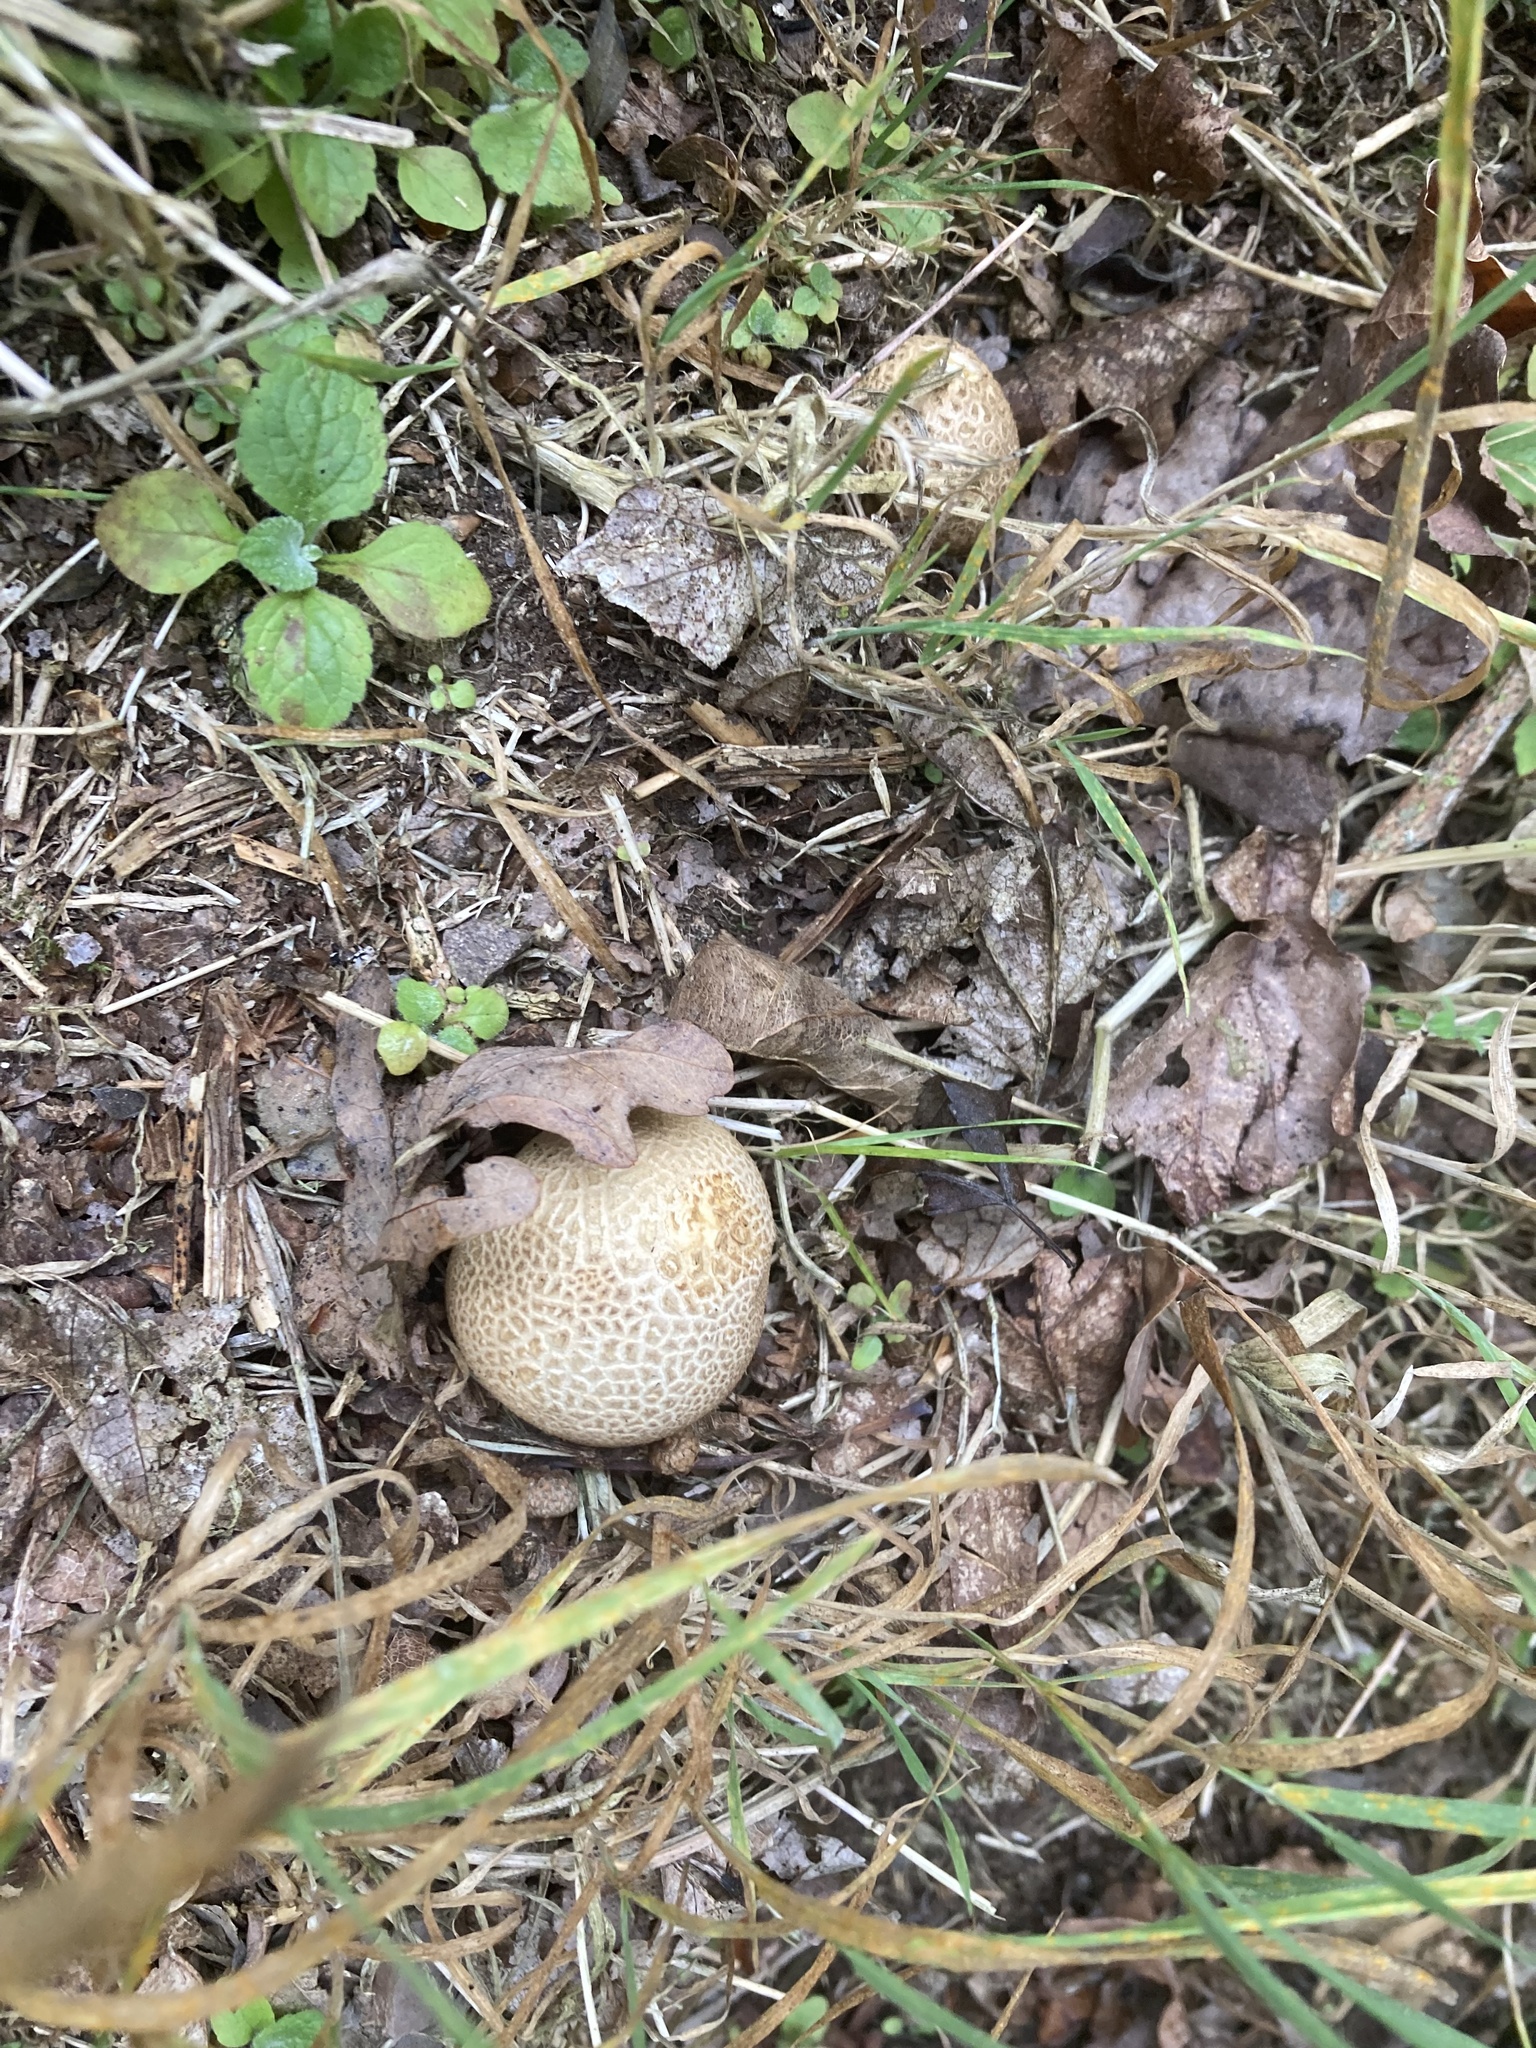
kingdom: Fungi
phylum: Basidiomycota
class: Agaricomycetes
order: Boletales
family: Sclerodermataceae
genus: Scleroderma
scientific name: Scleroderma citrinum
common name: Common earthball
